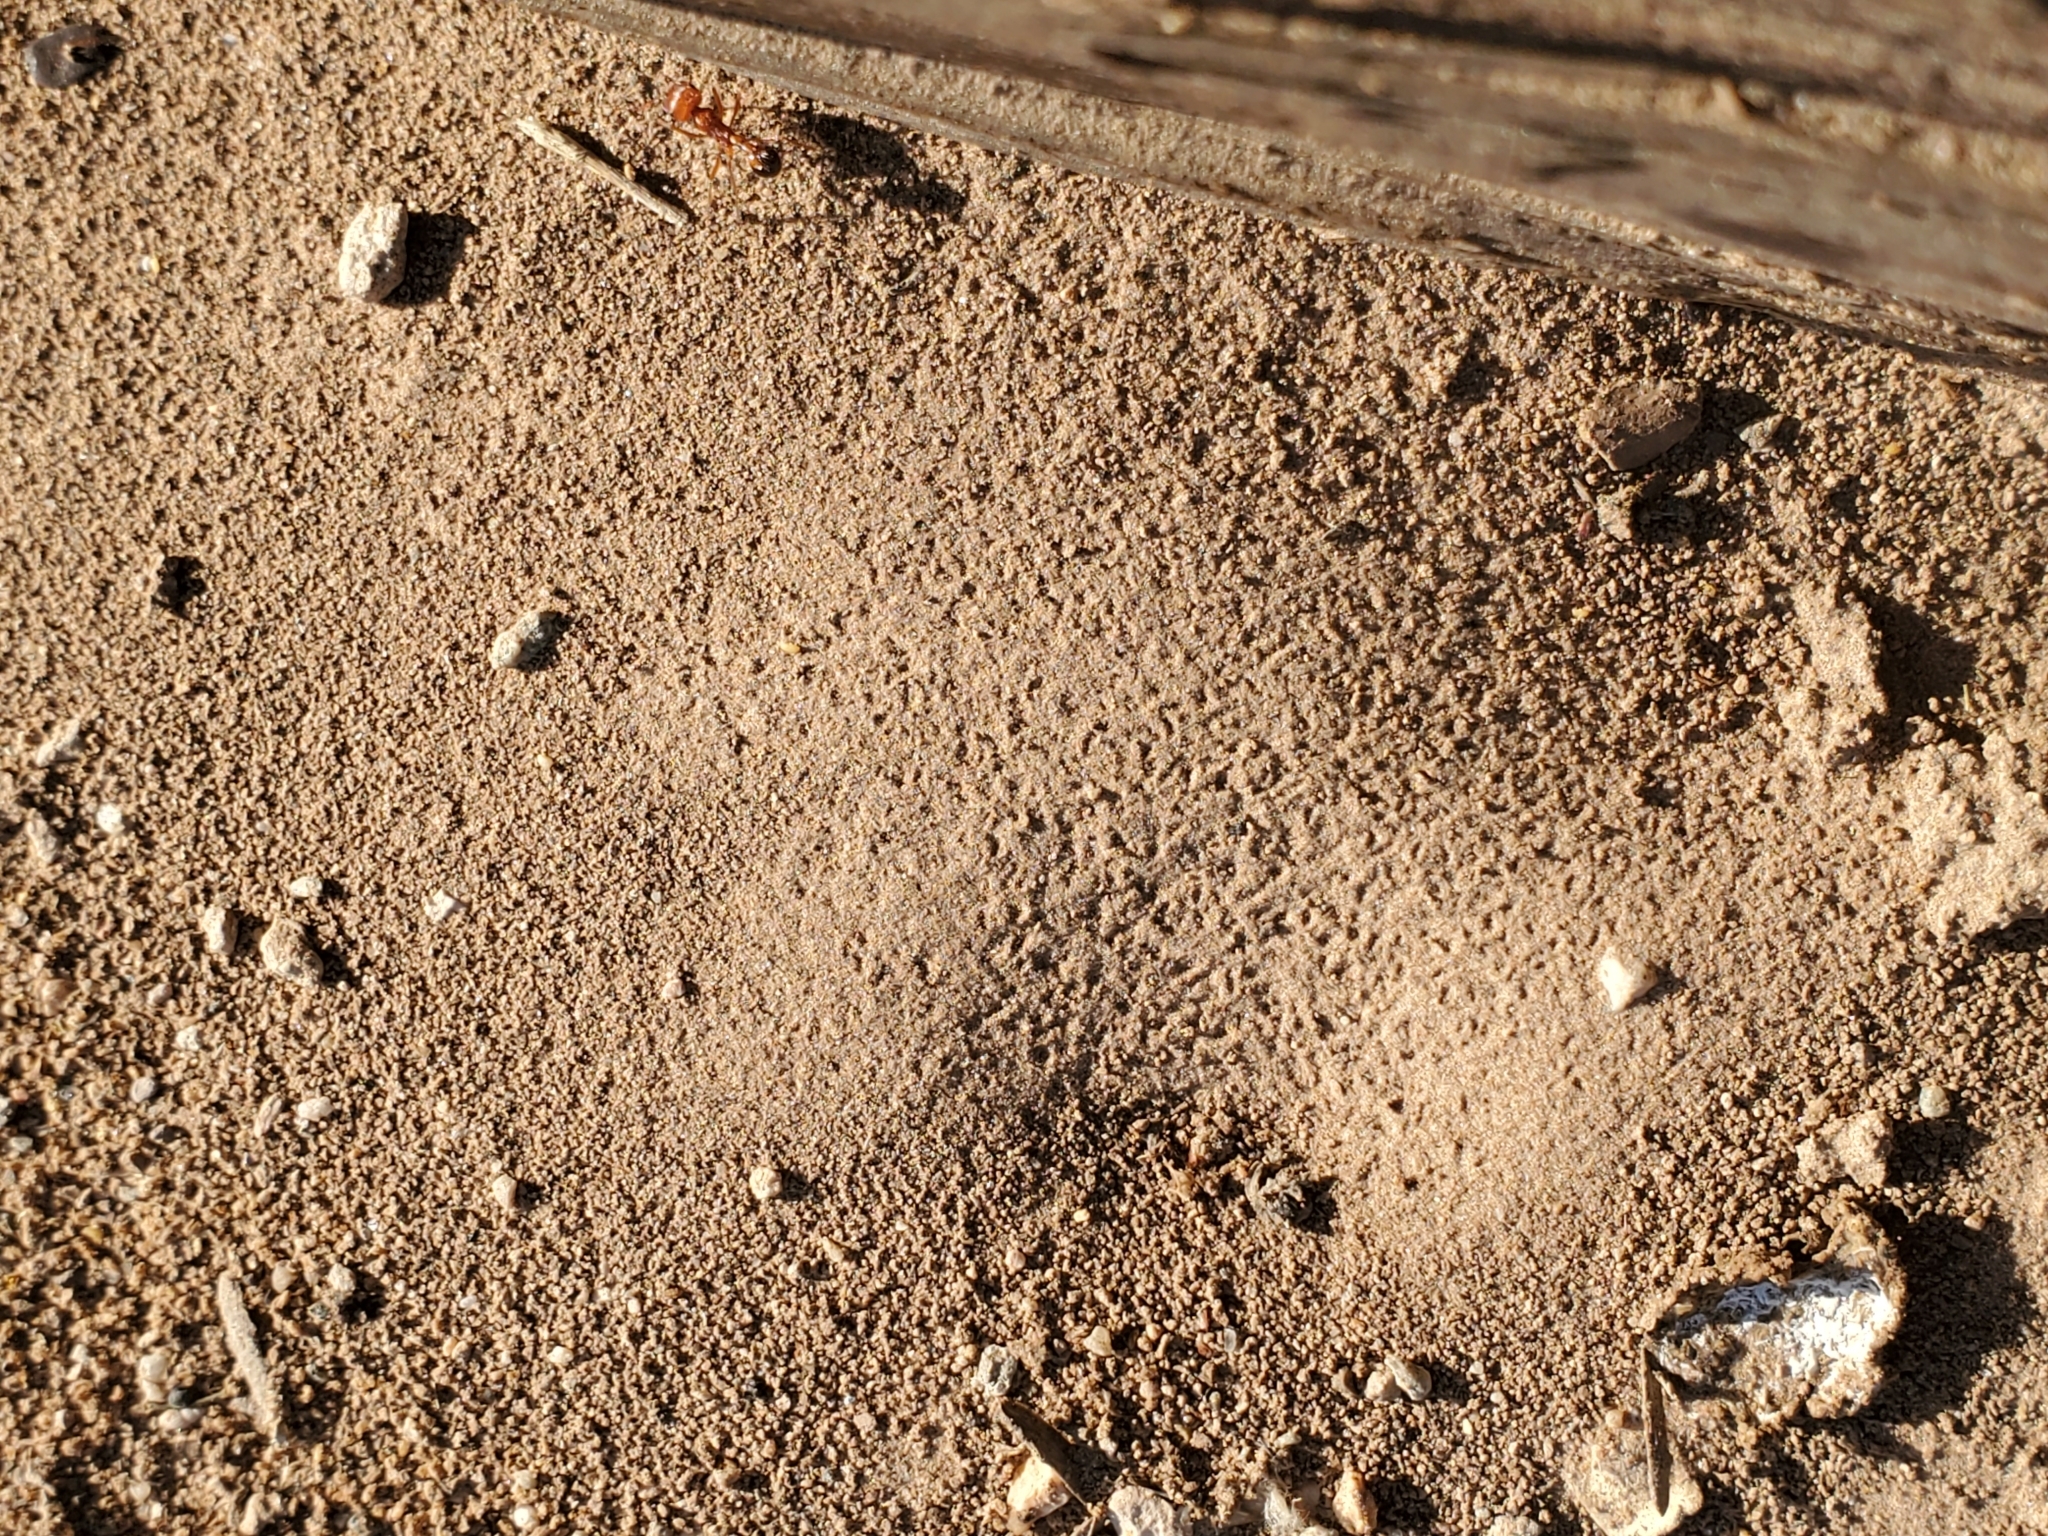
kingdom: Animalia
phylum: Arthropoda
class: Insecta
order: Hymenoptera
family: Formicidae
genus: Pogonomyrmex
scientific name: Pogonomyrmex californicus
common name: California harvester ant
